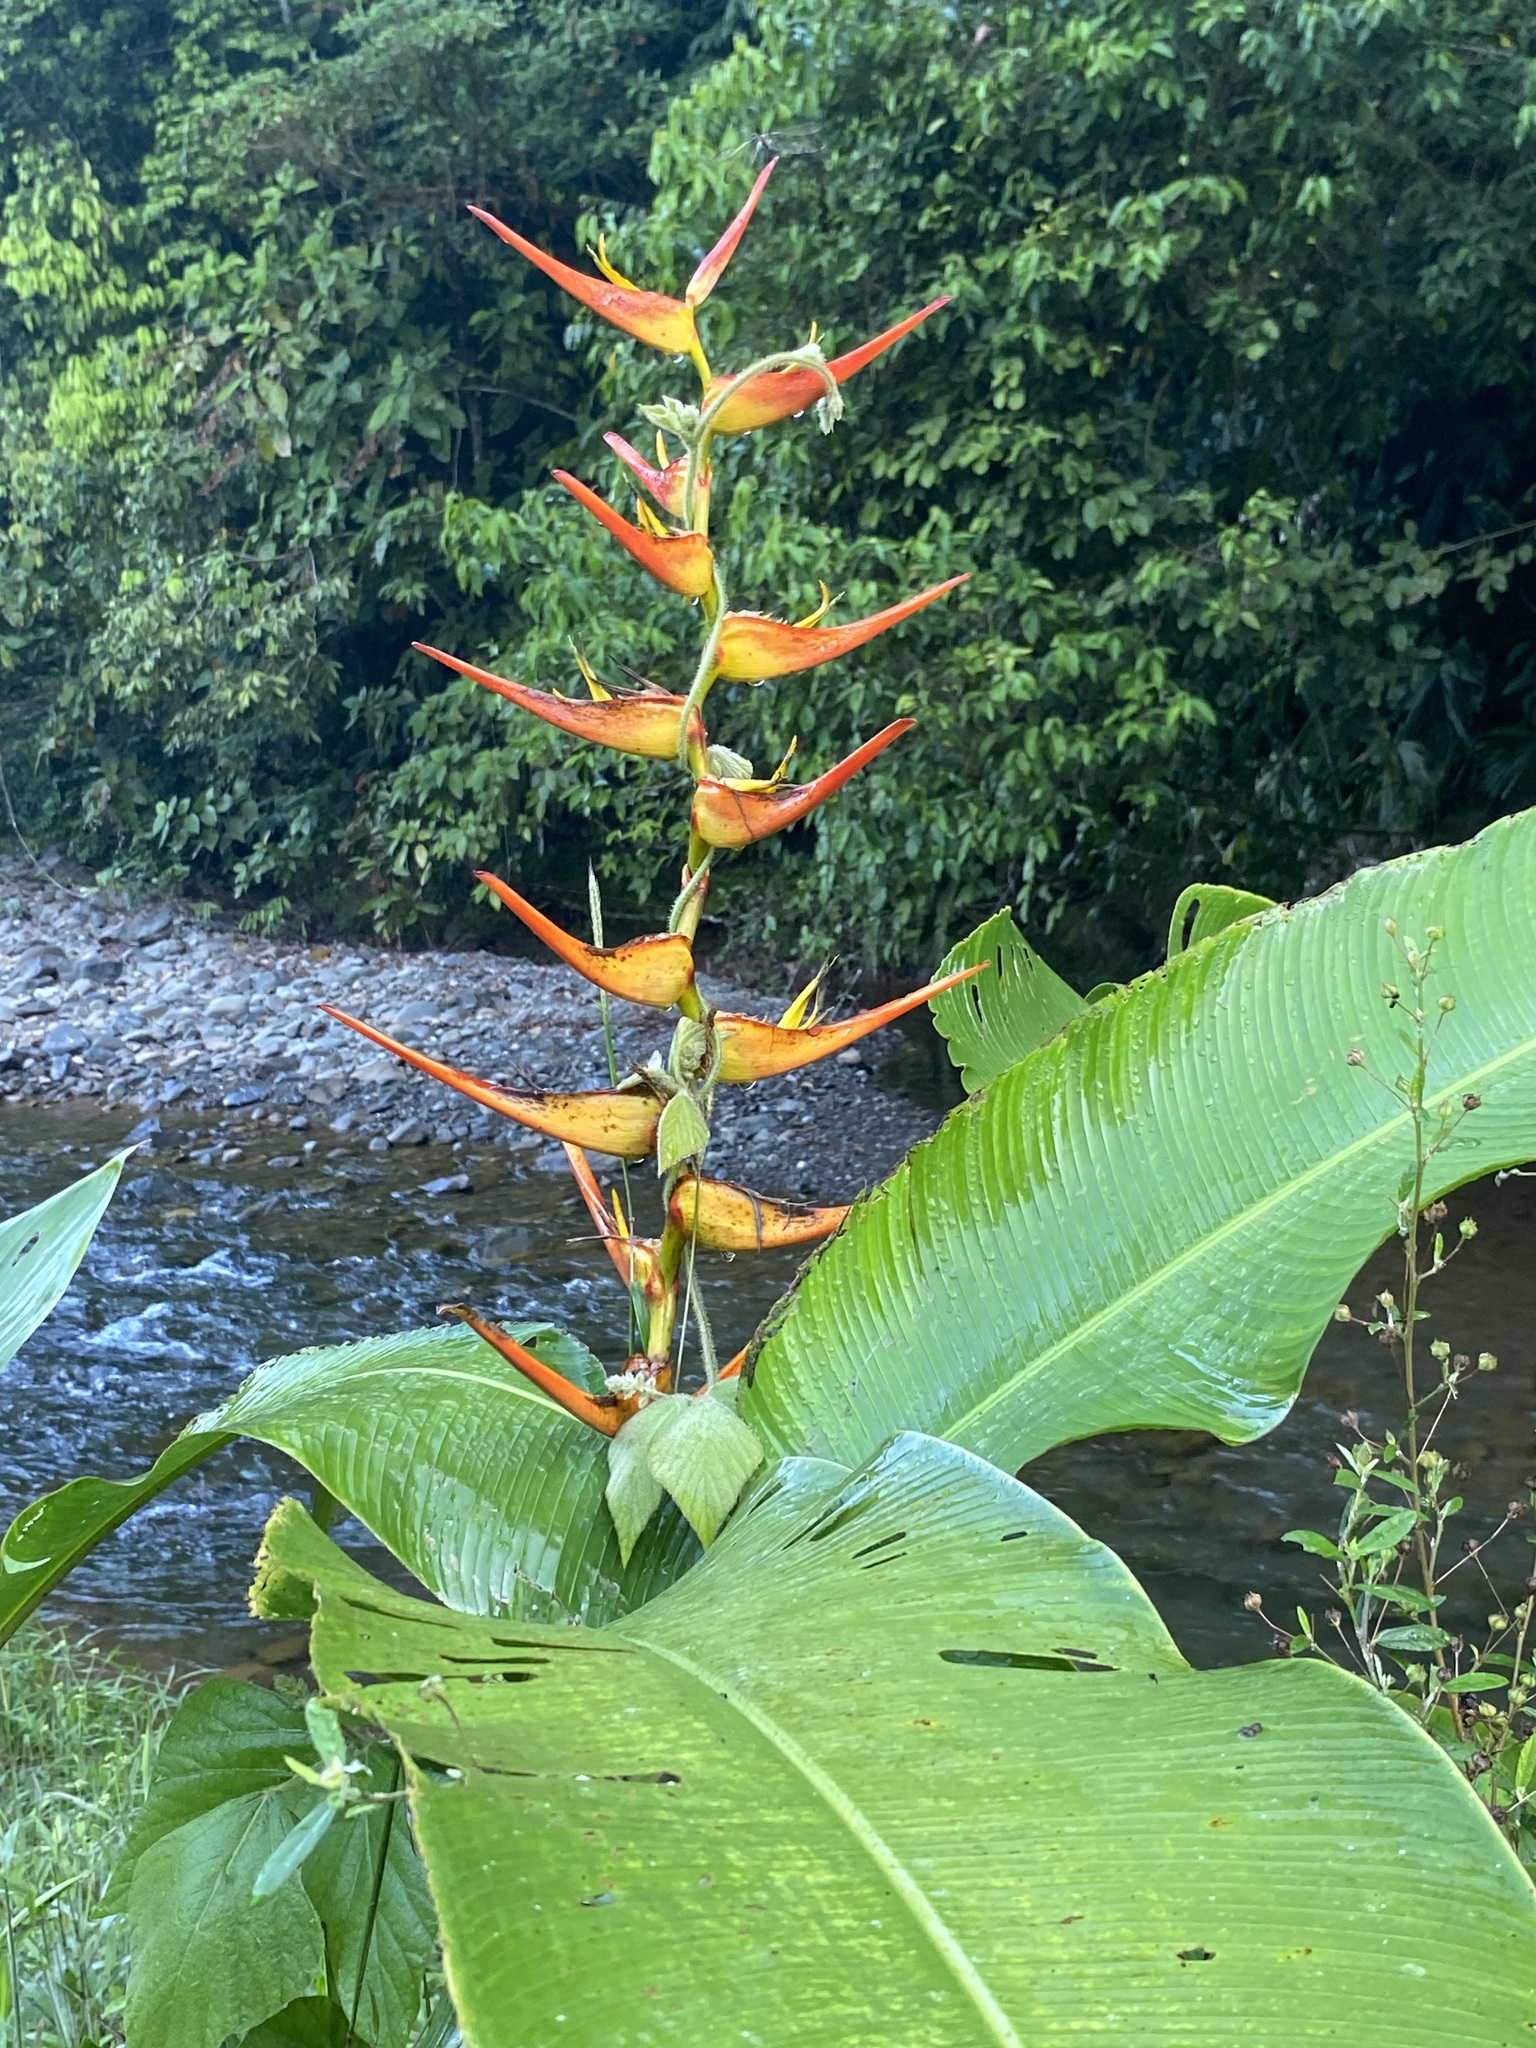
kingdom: Plantae
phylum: Tracheophyta
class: Liliopsida
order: Zingiberales
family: Heliconiaceae
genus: Heliconia
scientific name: Heliconia latispatha
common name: Expanded lobsterclaw
